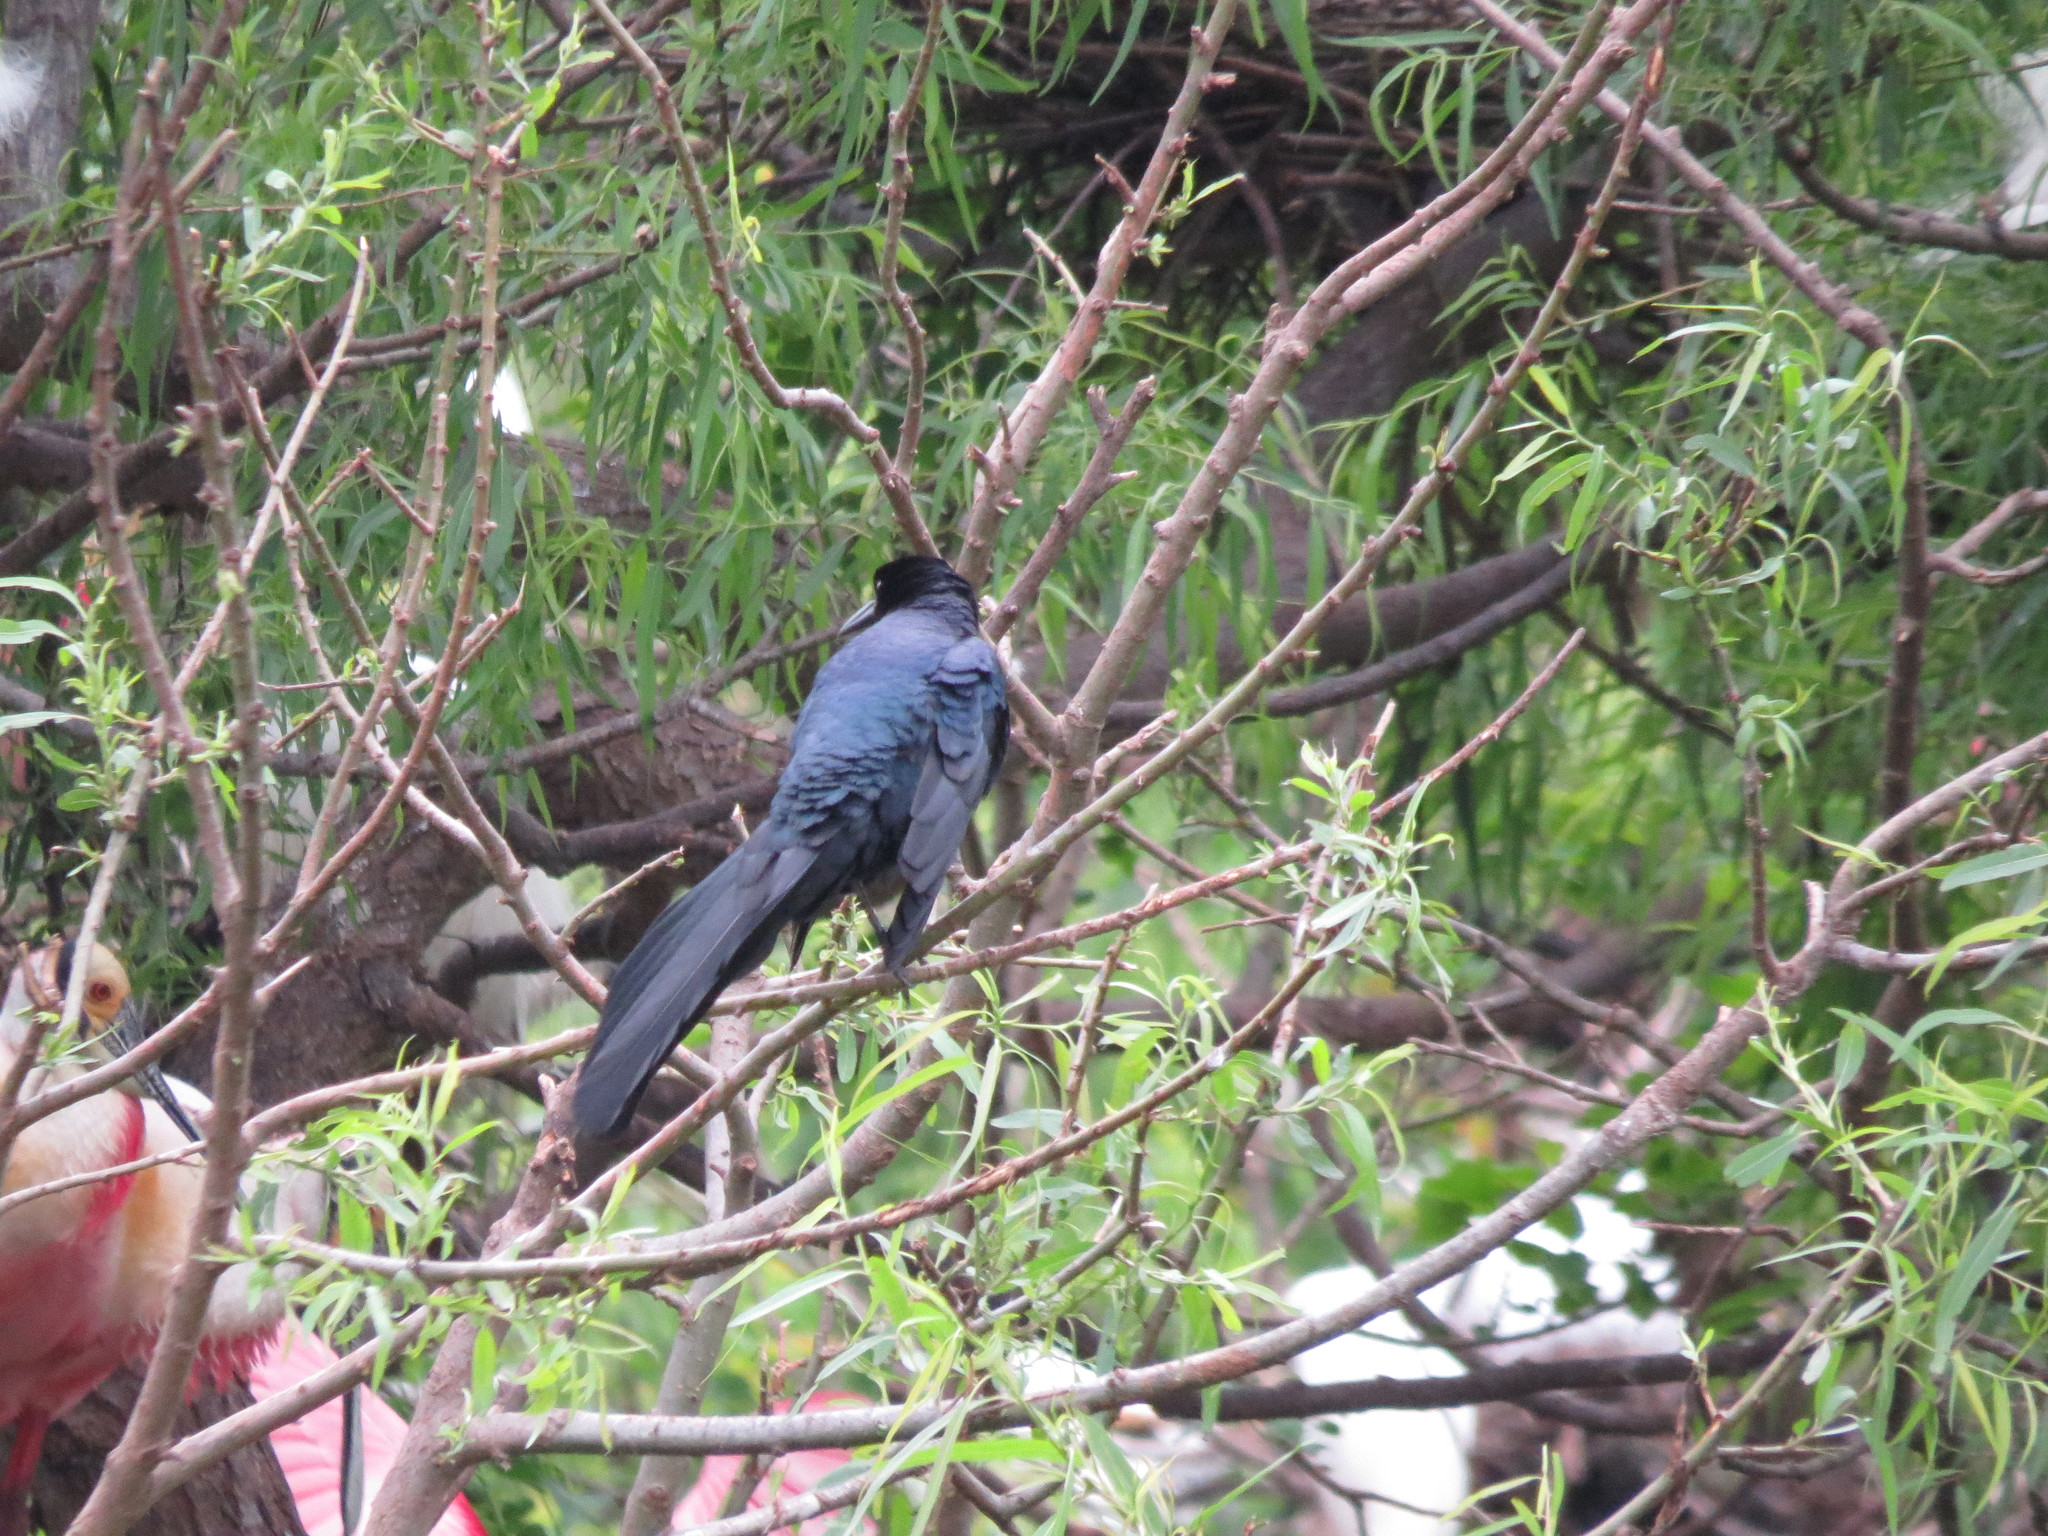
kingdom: Animalia
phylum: Chordata
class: Aves
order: Passeriformes
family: Icteridae
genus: Quiscalus
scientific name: Quiscalus mexicanus
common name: Great-tailed grackle
